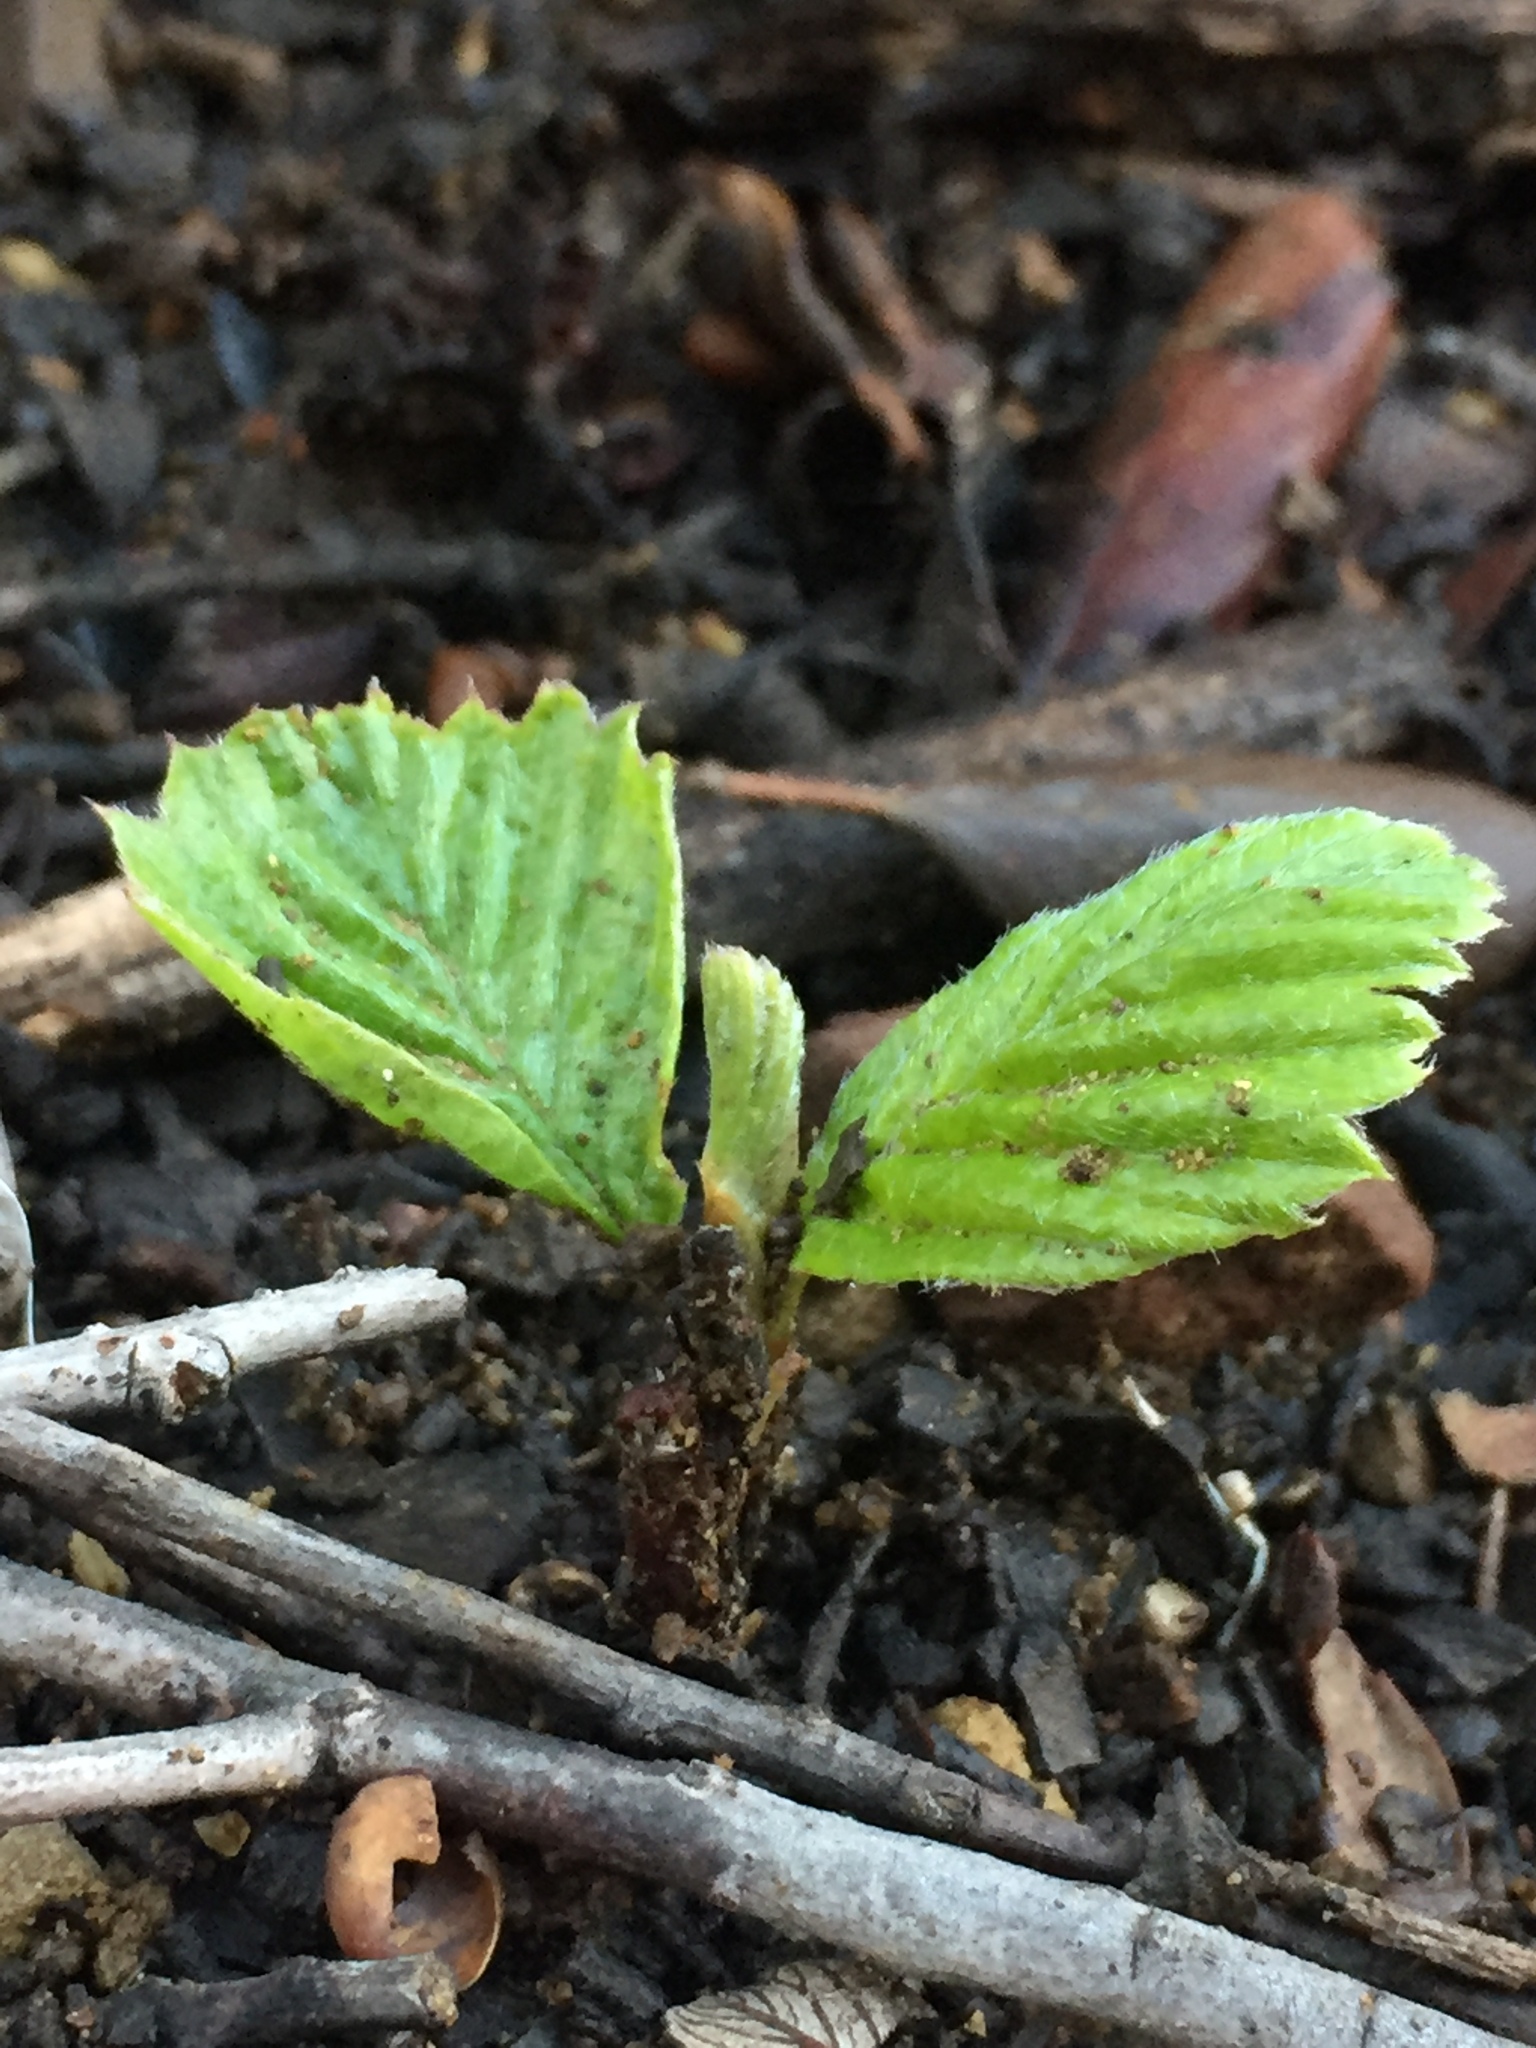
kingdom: Plantae
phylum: Tracheophyta
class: Magnoliopsida
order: Rosales
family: Rosaceae
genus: Cercocarpus
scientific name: Cercocarpus betuloides
